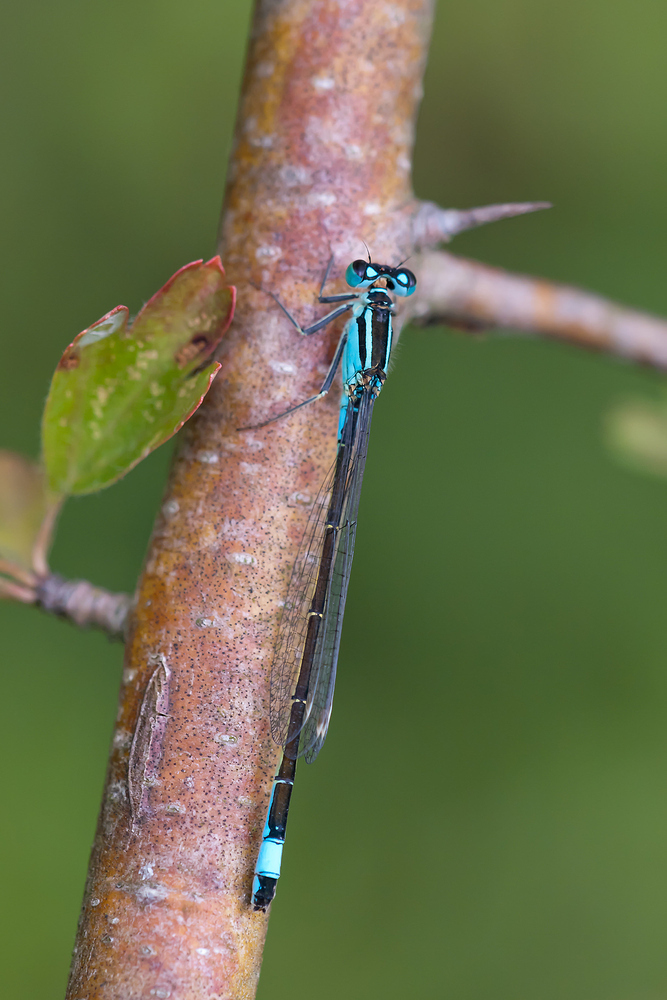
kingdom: Animalia
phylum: Arthropoda
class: Insecta
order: Odonata
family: Coenagrionidae
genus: Ischnura
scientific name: Ischnura elegans
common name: Blue-tailed damselfly
